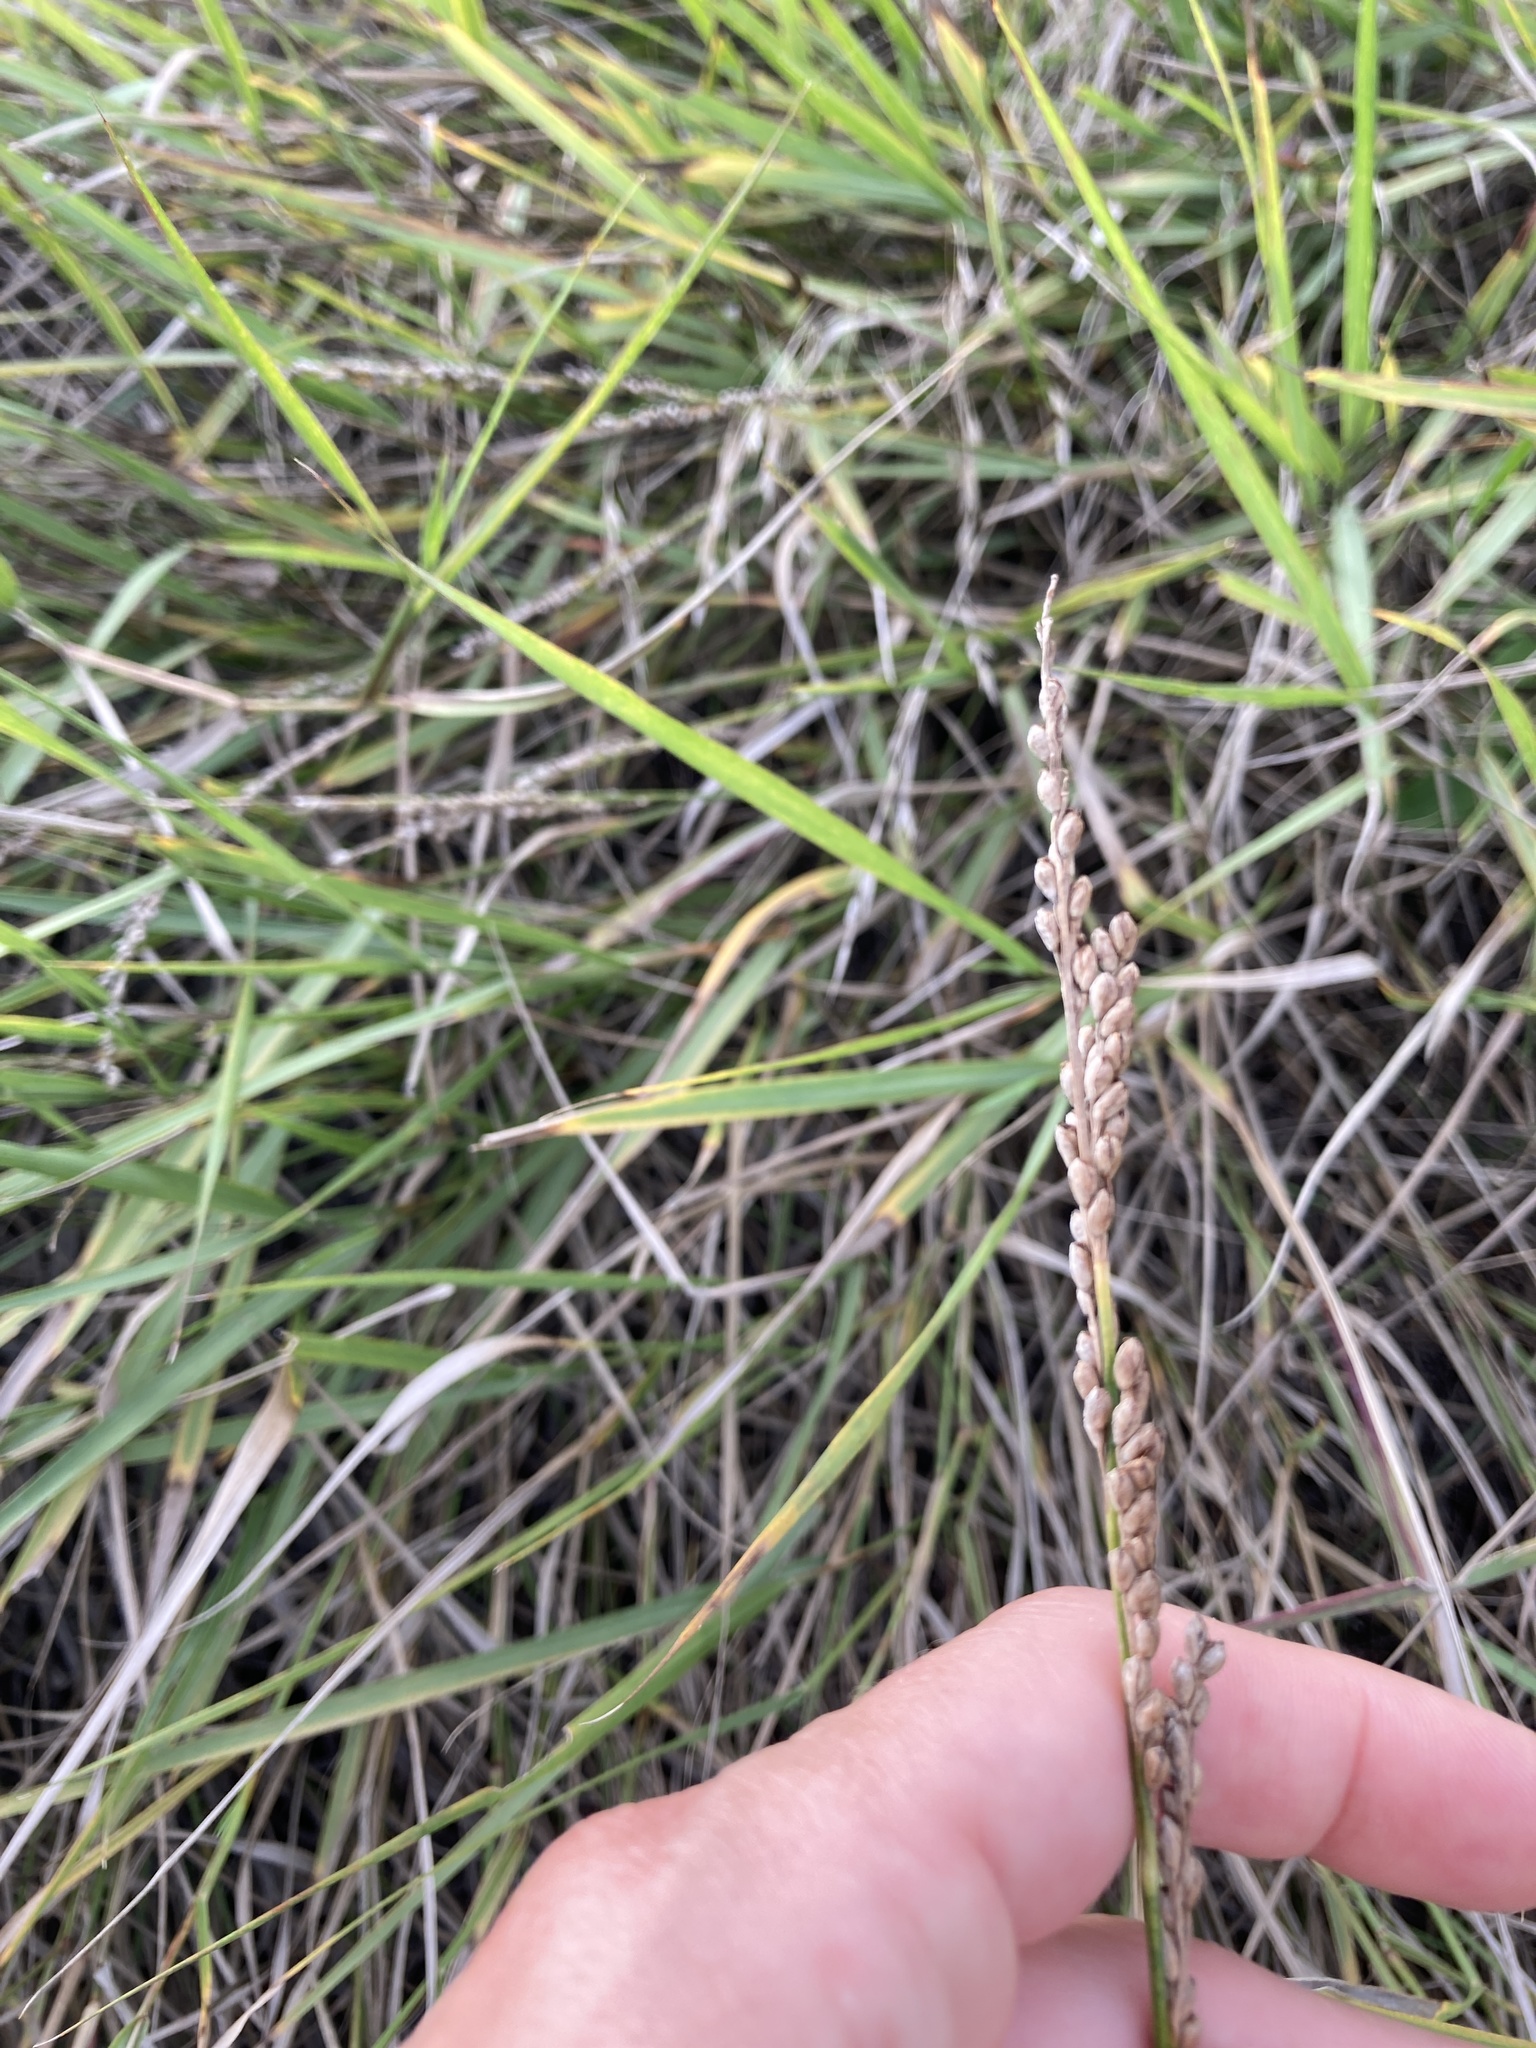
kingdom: Plantae
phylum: Tracheophyta
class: Liliopsida
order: Poales
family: Poaceae
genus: Hopia
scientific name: Hopia obtusa
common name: Vine-mesquite
